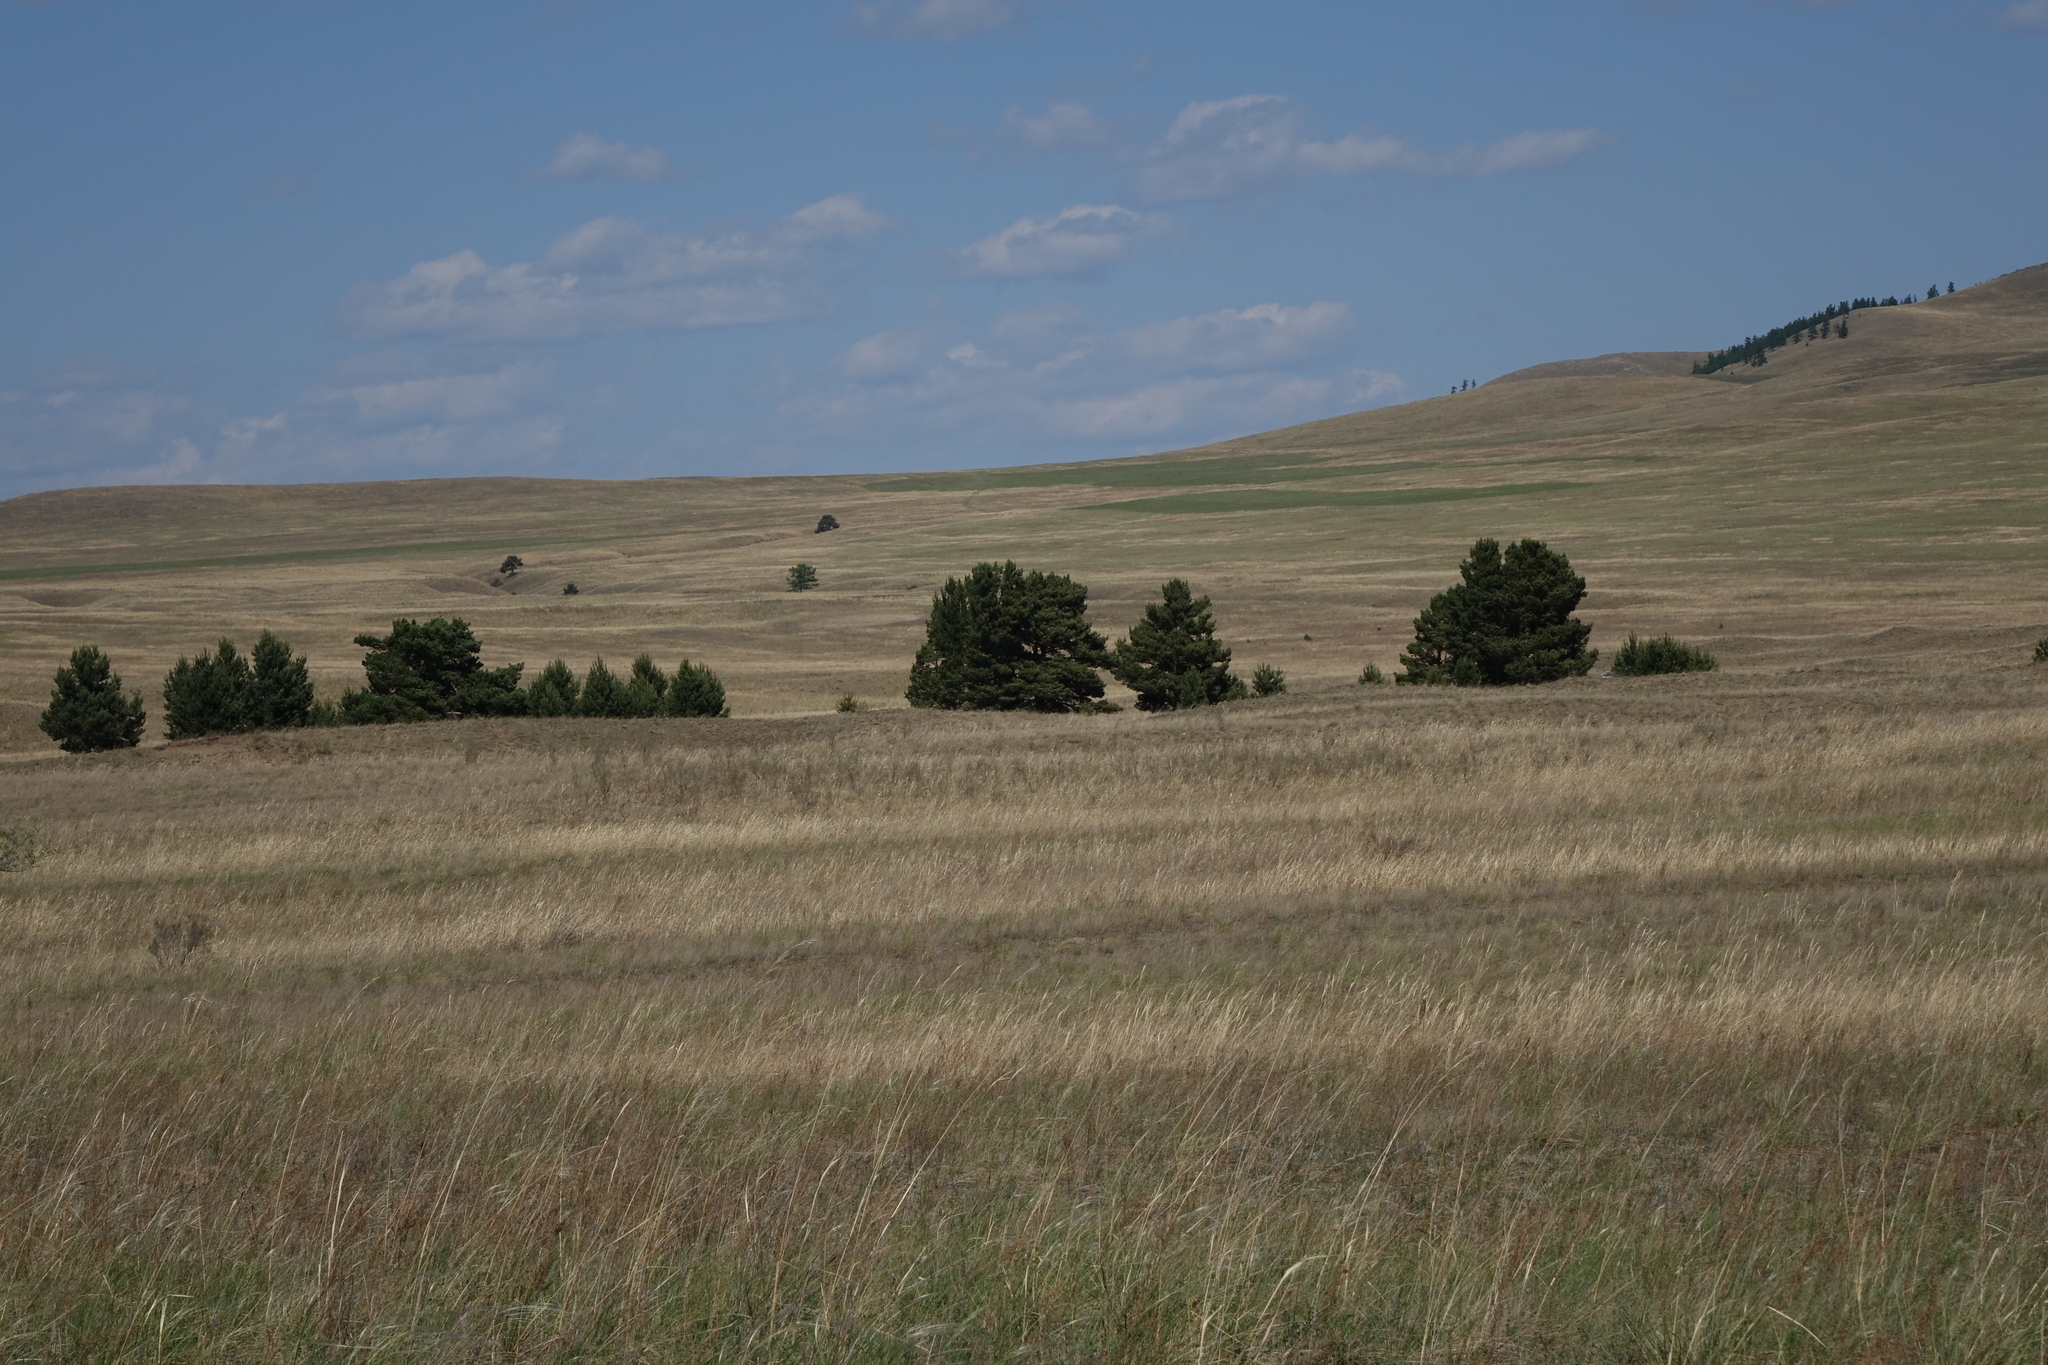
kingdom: Plantae
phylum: Tracheophyta
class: Pinopsida
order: Pinales
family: Pinaceae
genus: Pinus
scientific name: Pinus sylvestris
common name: Scots pine
